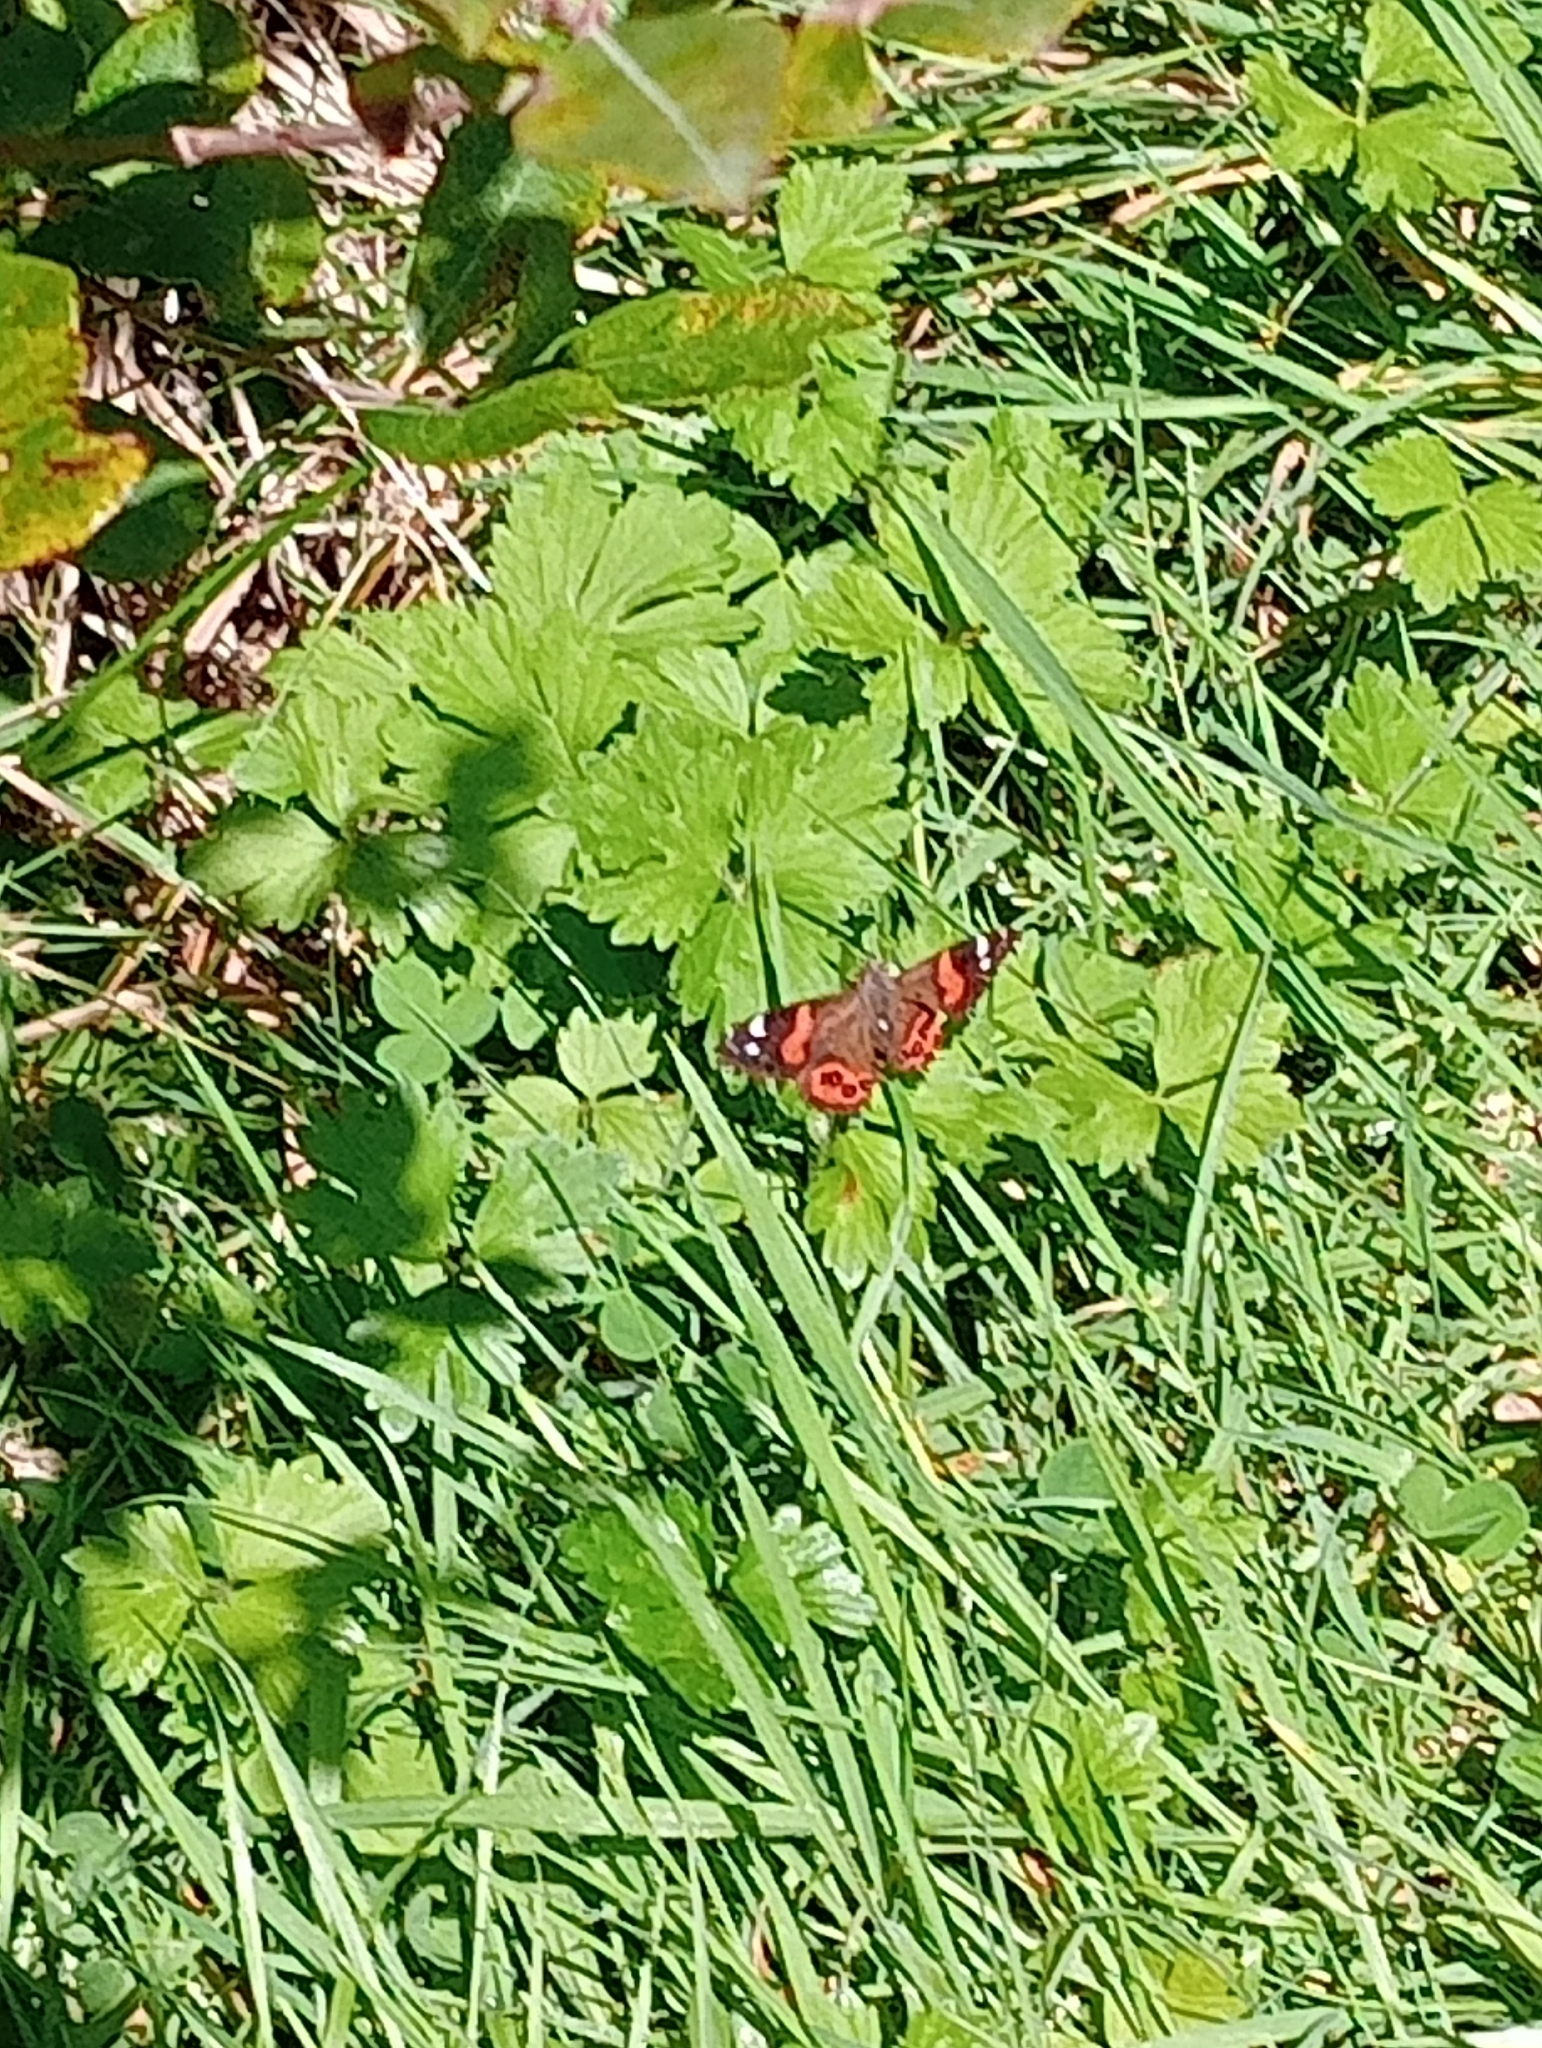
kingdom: Animalia
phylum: Arthropoda
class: Insecta
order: Lepidoptera
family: Nymphalidae
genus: Vanessa
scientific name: Vanessa gonerilla
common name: New zealand red admiral
